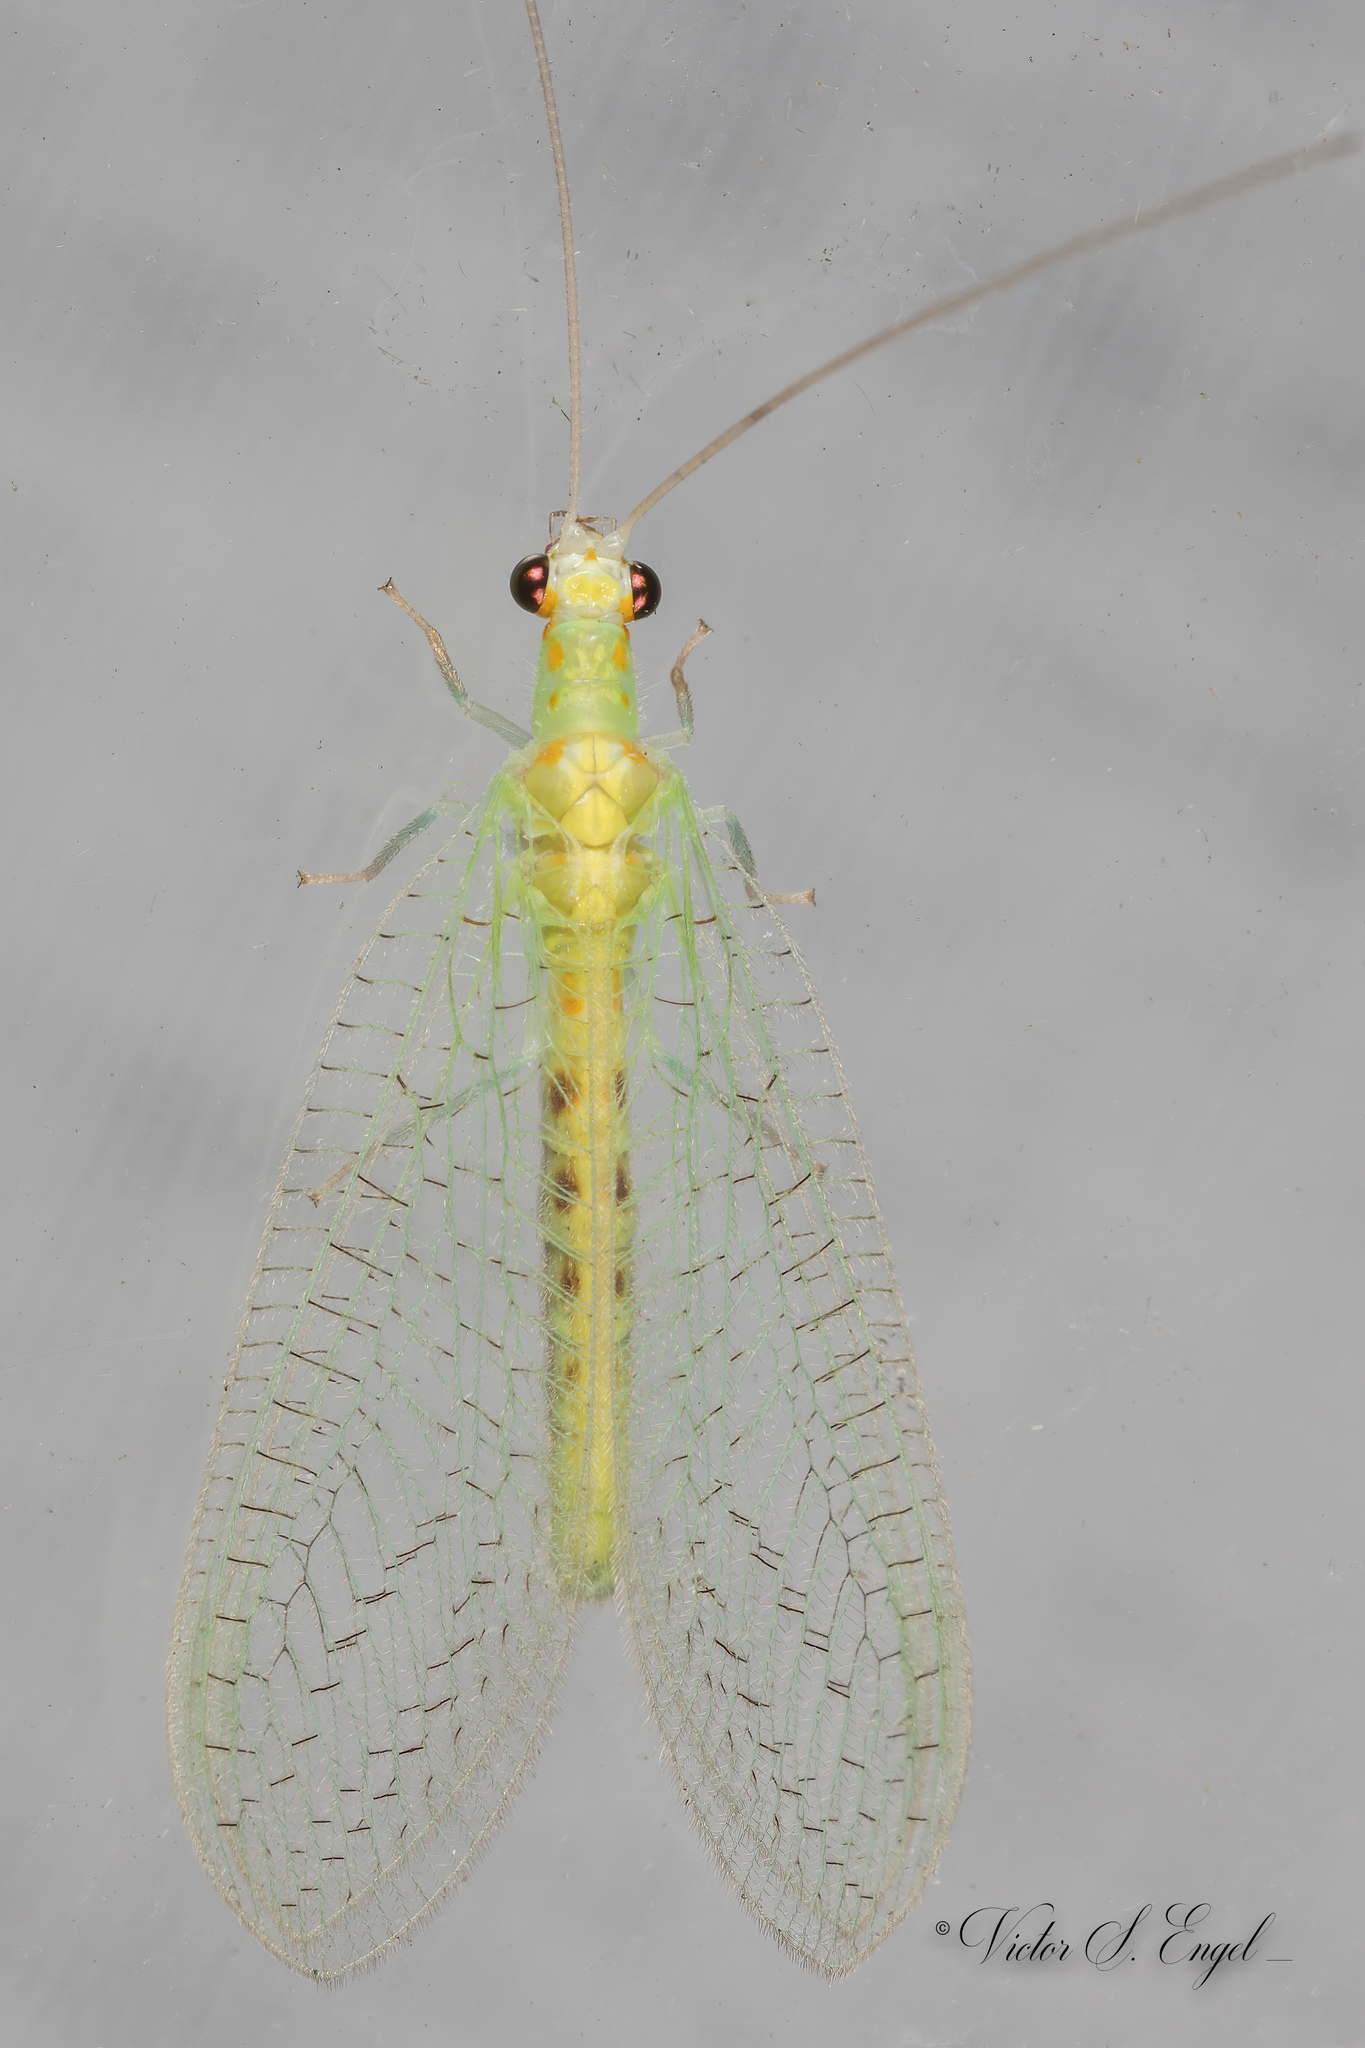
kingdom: Animalia
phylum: Arthropoda
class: Insecta
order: Neuroptera
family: Chrysopidae
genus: Chrysopa
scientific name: Chrysopa quadripunctata
